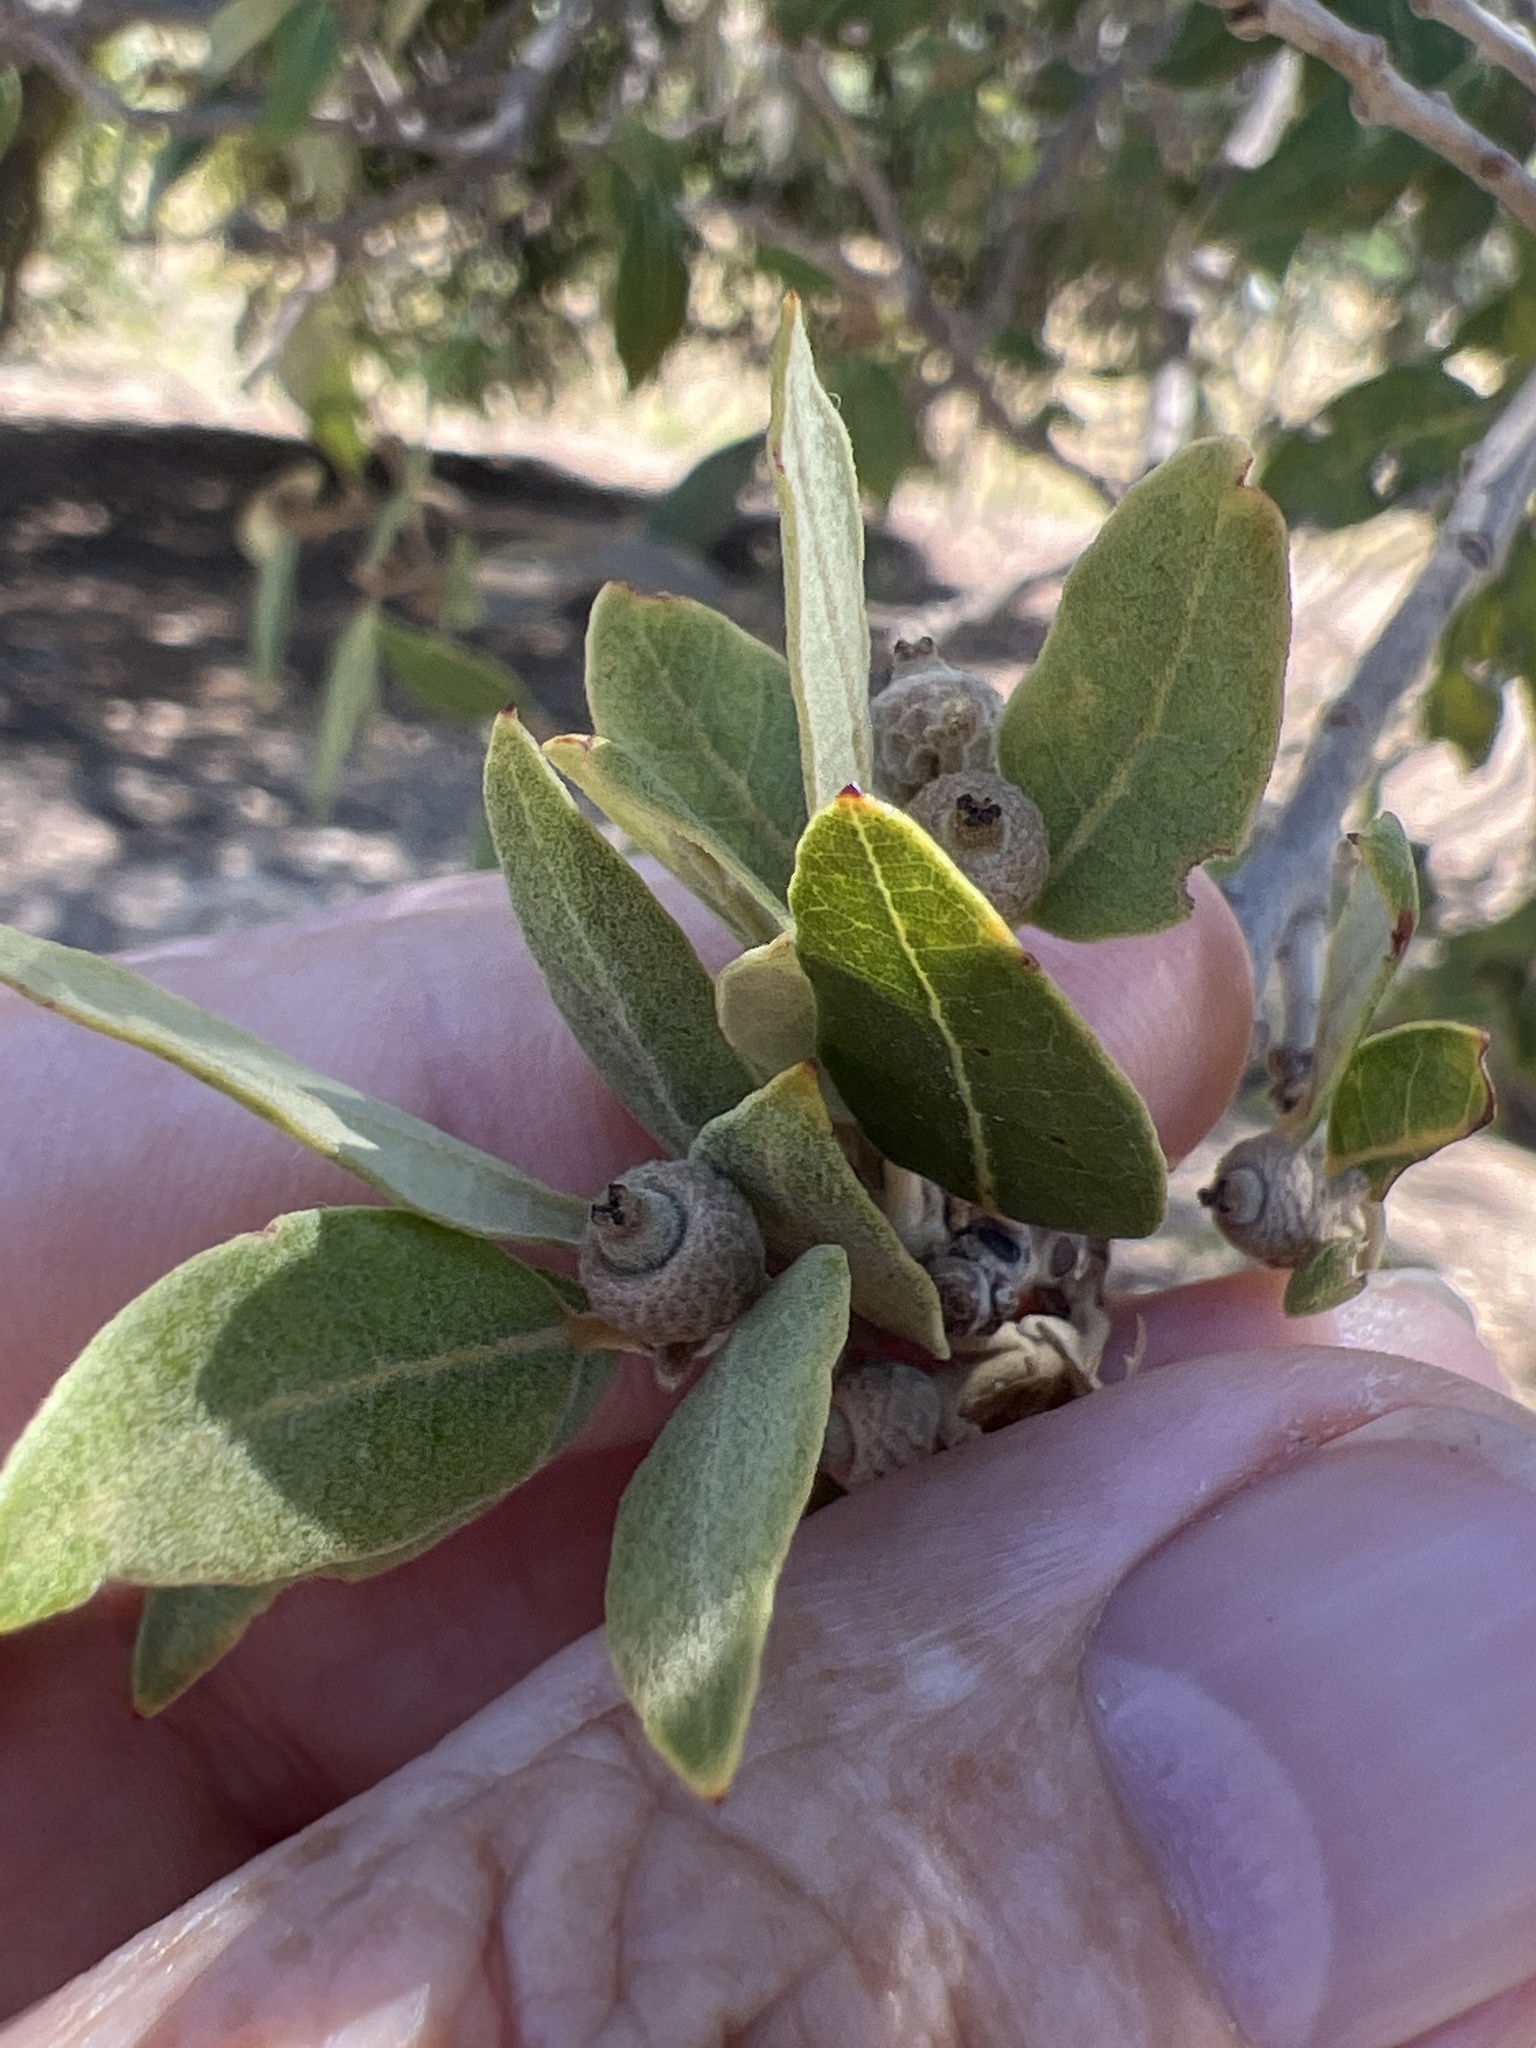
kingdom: Plantae
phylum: Tracheophyta
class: Magnoliopsida
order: Fagales
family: Fagaceae
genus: Quercus
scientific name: Quercus ilex
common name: Evergreen oak
